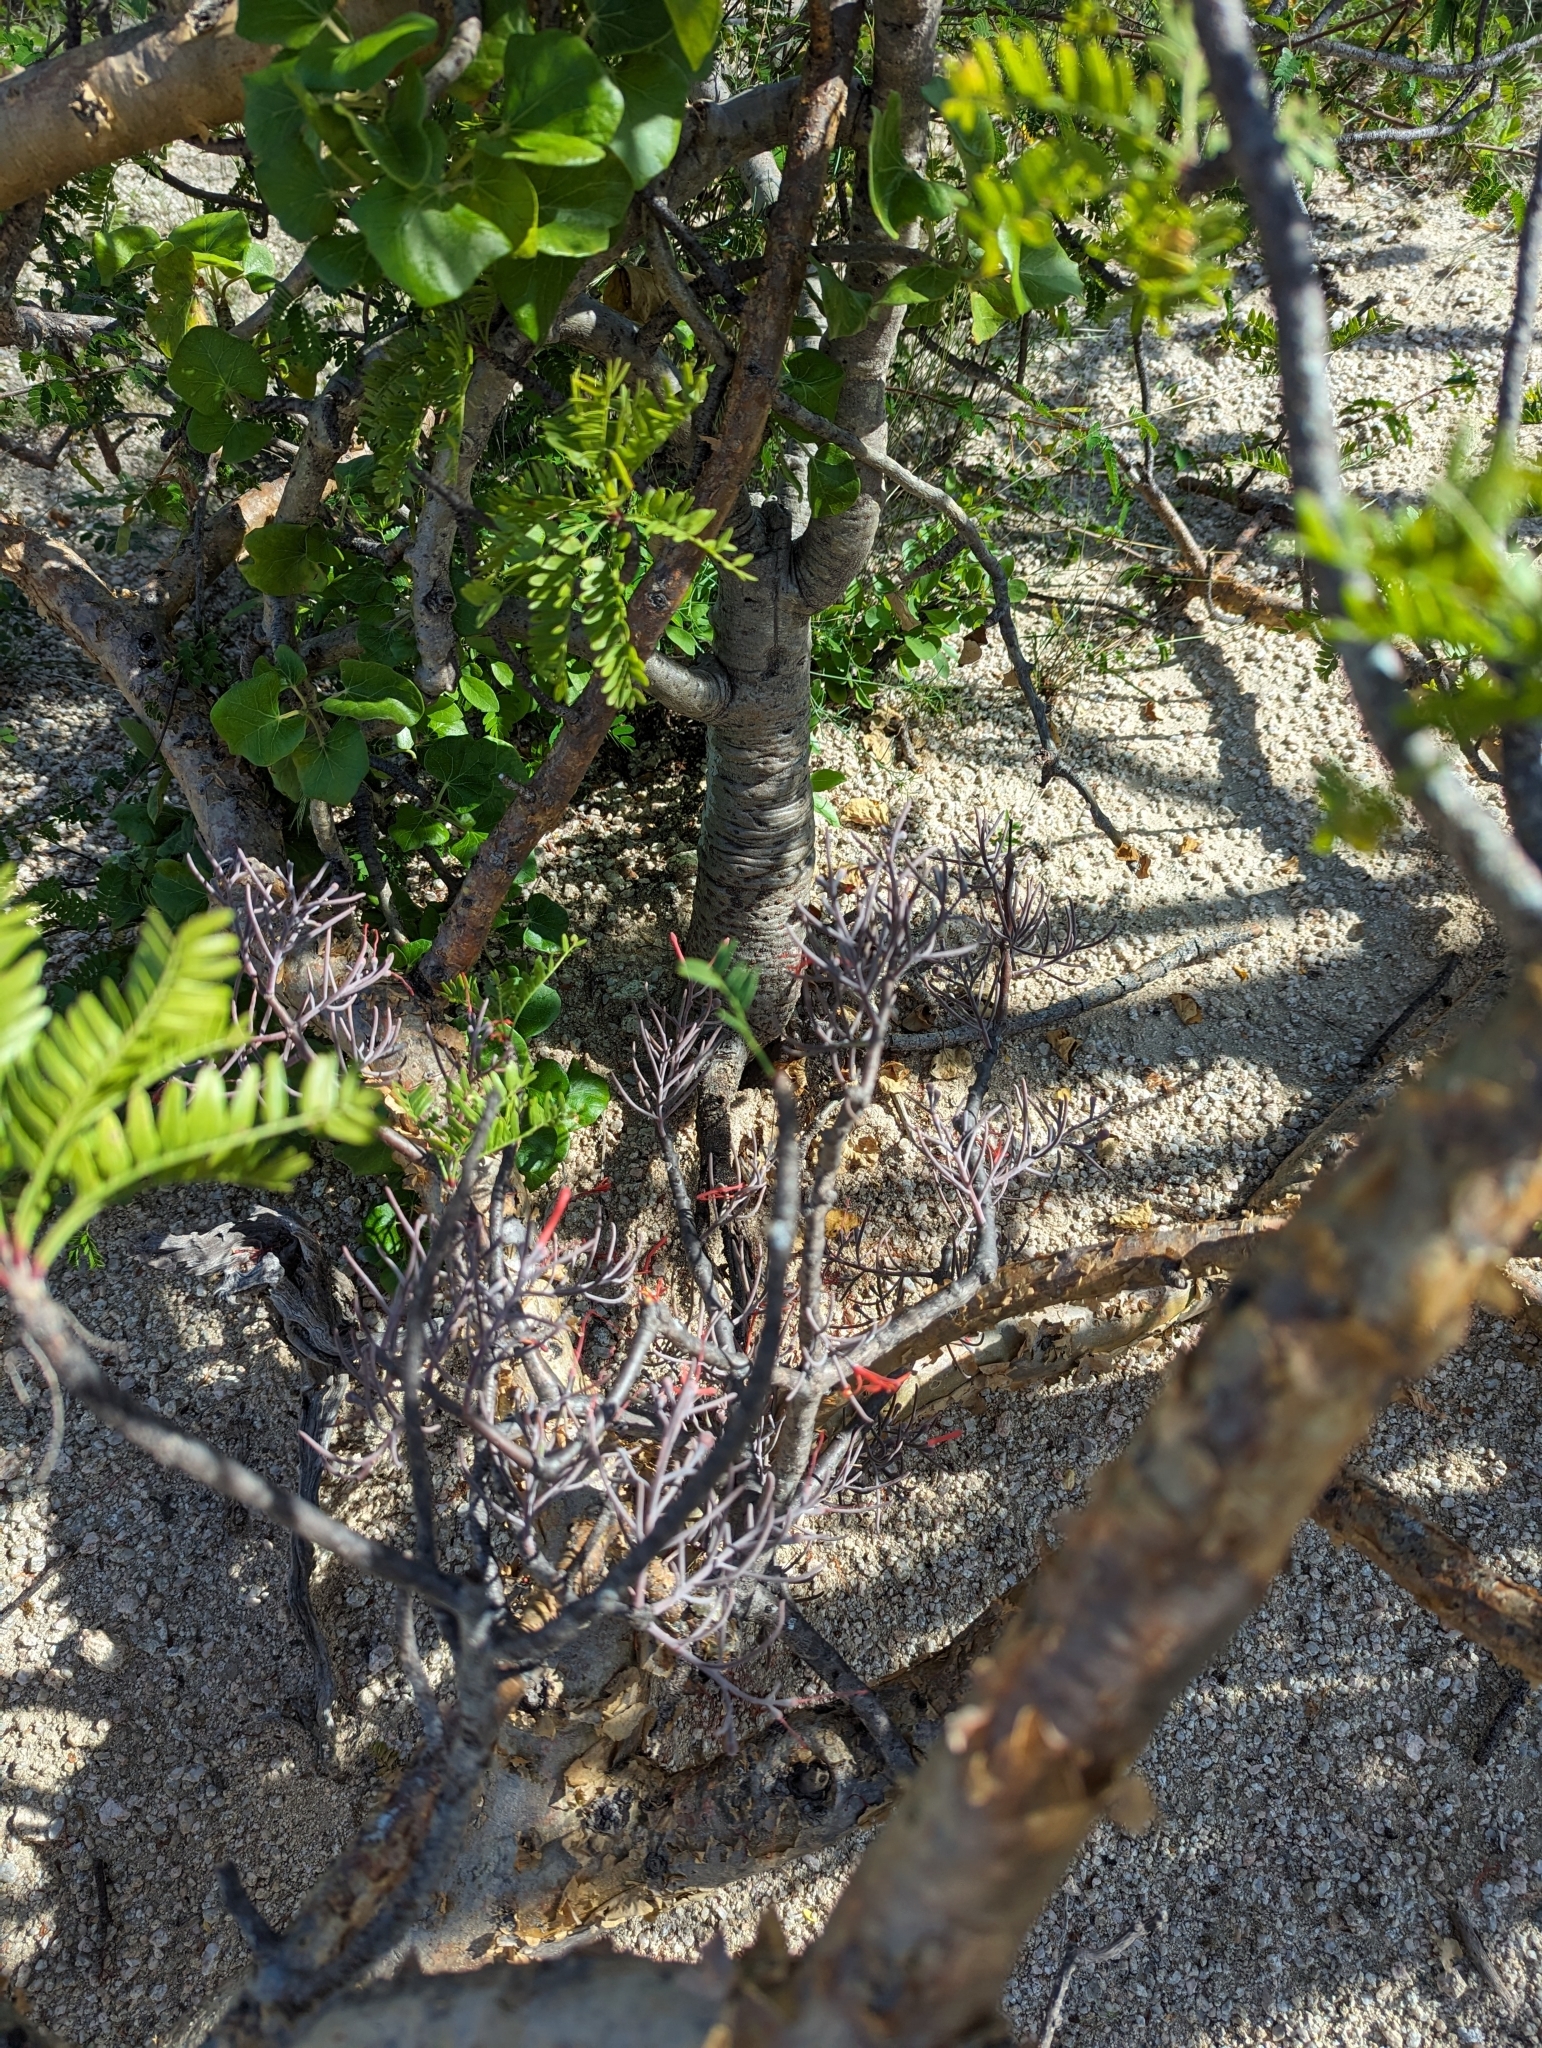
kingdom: Plantae
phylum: Tracheophyta
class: Magnoliopsida
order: Santalales
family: Loranthaceae
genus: Psittacanthus
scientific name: Psittacanthus sonorae
